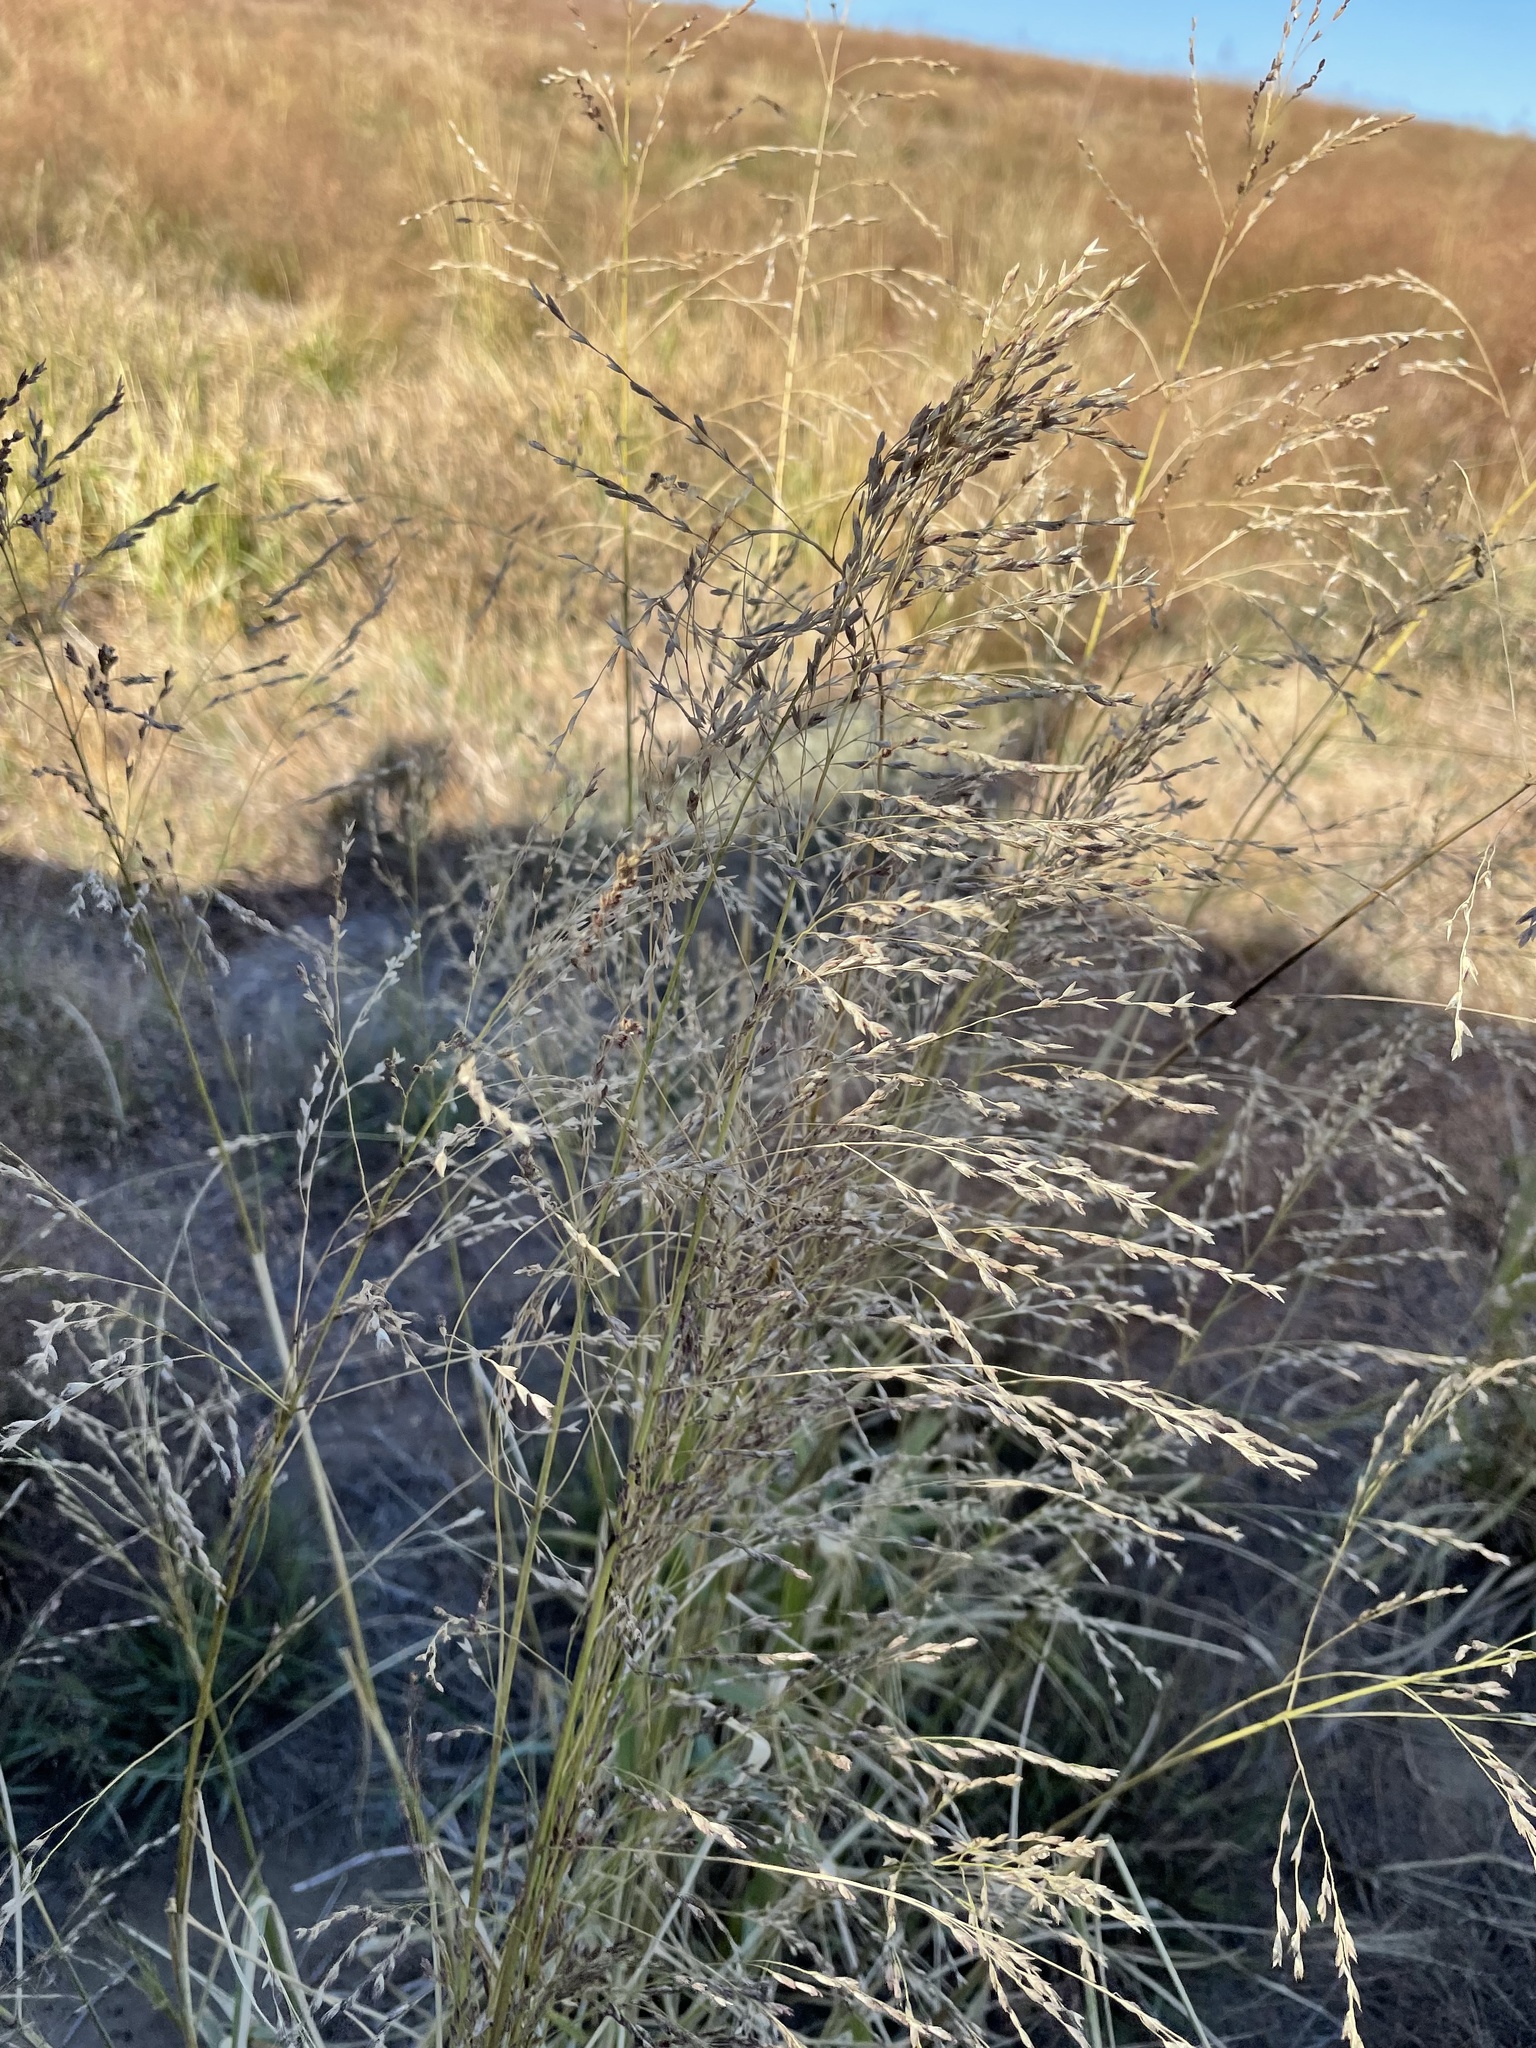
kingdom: Plantae
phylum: Tracheophyta
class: Liliopsida
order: Poales
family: Poaceae
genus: Tridens
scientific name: Tridens flavus
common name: Purpletop
